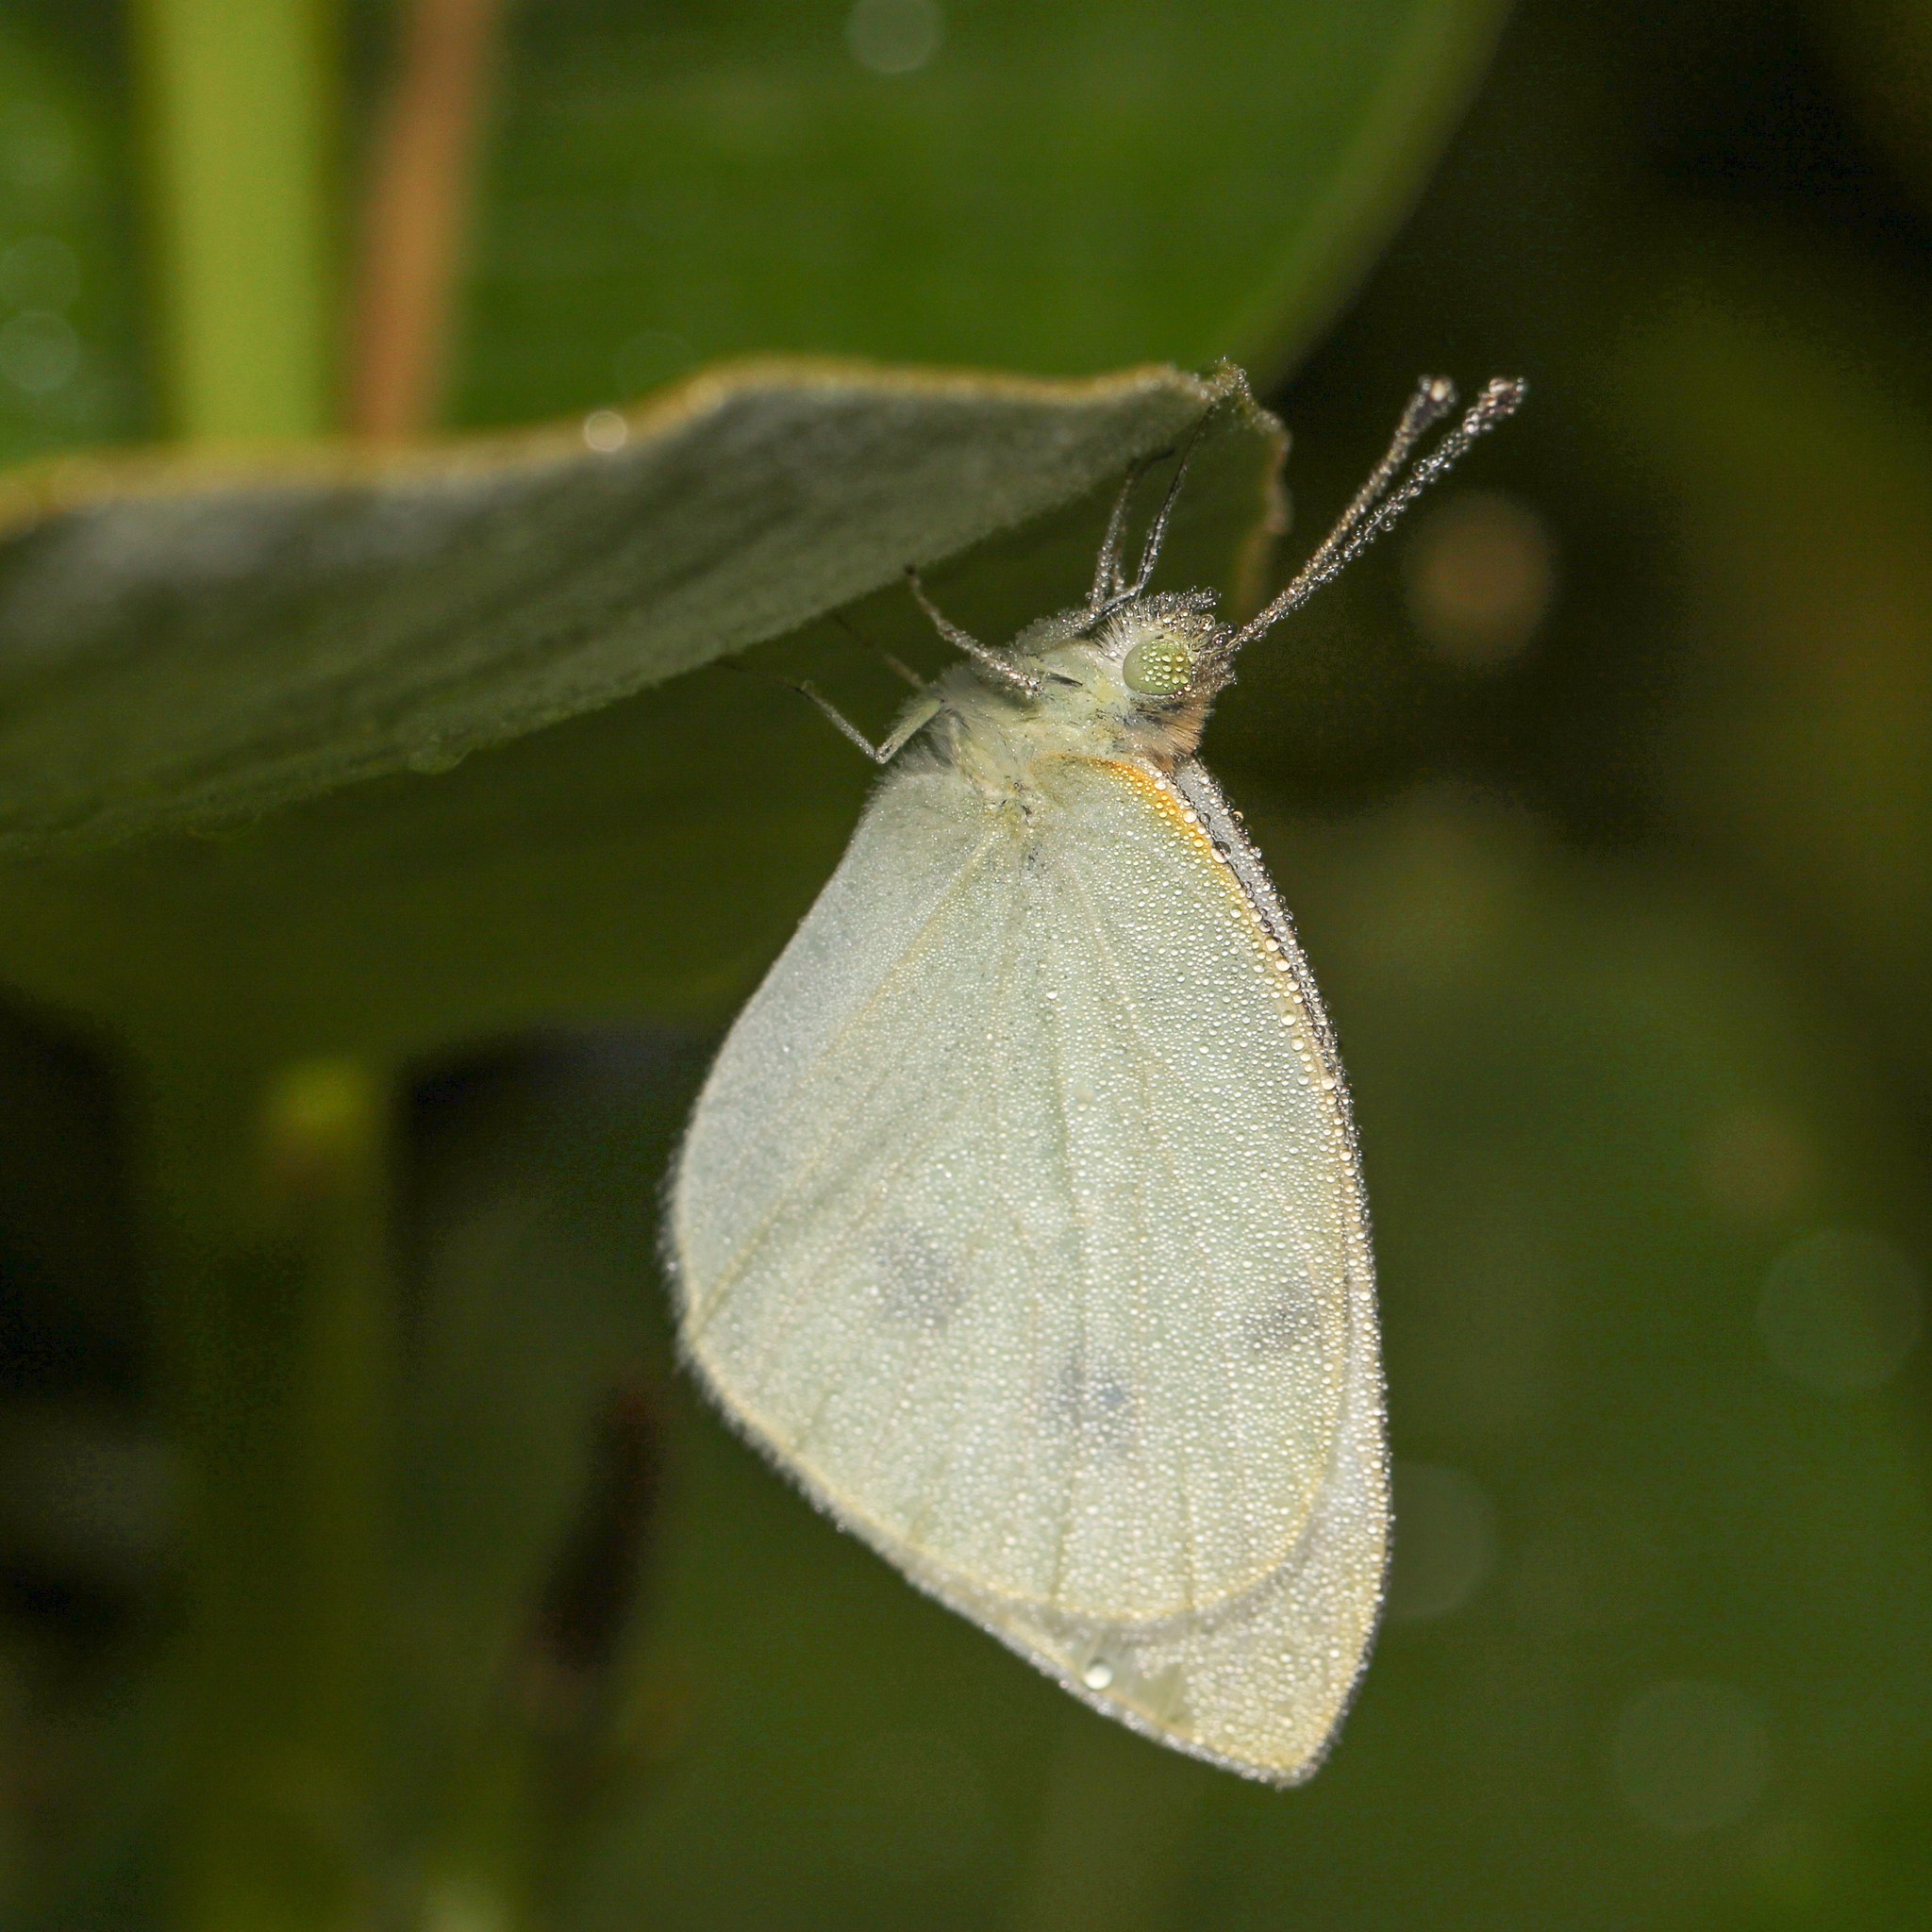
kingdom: Animalia
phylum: Arthropoda
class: Insecta
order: Lepidoptera
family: Pieridae
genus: Pieris
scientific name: Pieris rapae
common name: Small white
